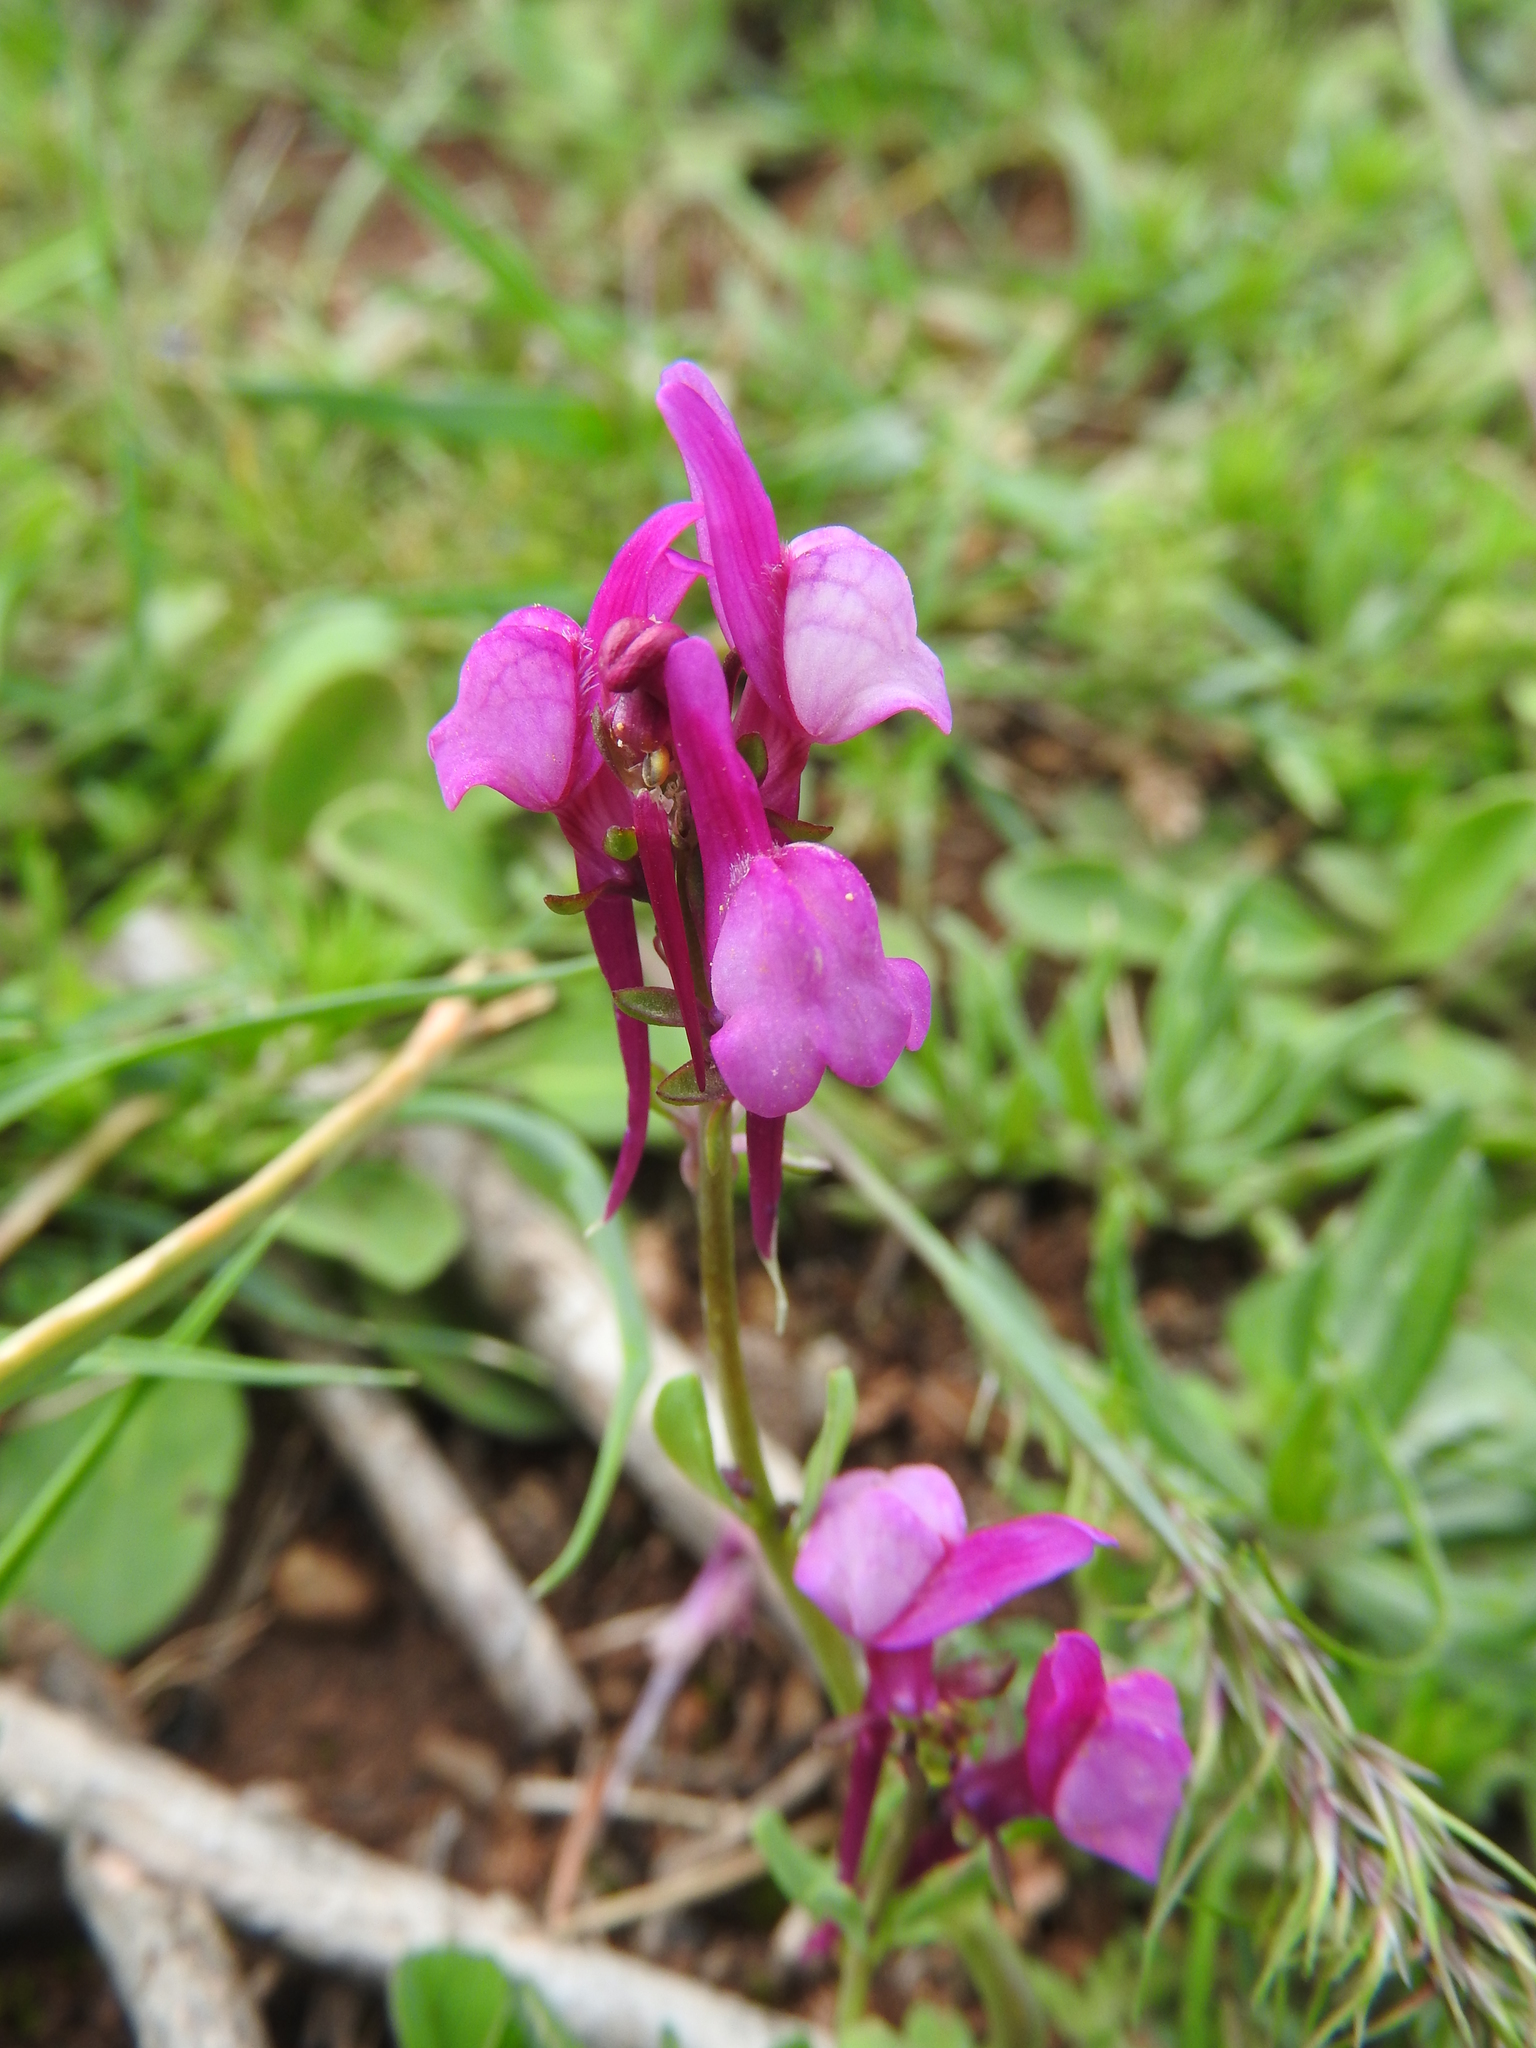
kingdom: Plantae
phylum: Tracheophyta
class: Magnoliopsida
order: Lamiales
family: Plantaginaceae
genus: Linaria
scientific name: Linaria virgata
